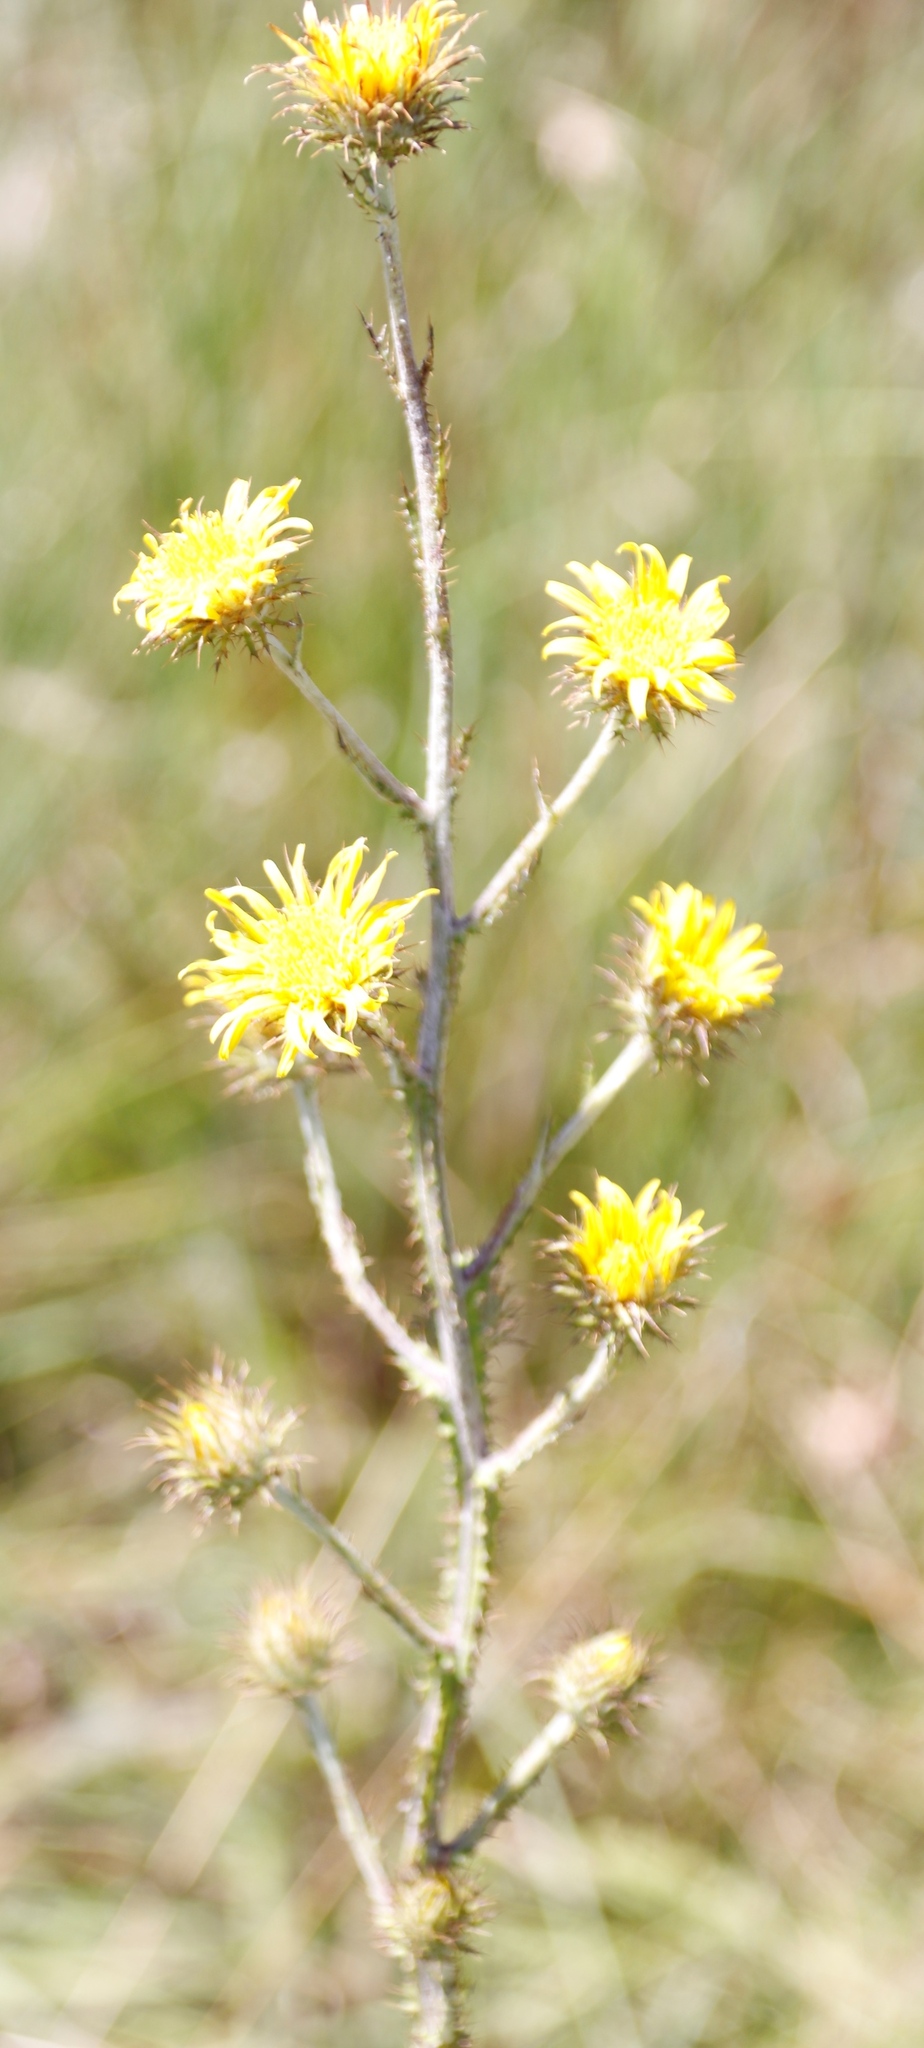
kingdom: Plantae
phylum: Tracheophyta
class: Magnoliopsida
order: Asterales
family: Asteraceae
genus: Berkheya
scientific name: Berkheya rhapontica
